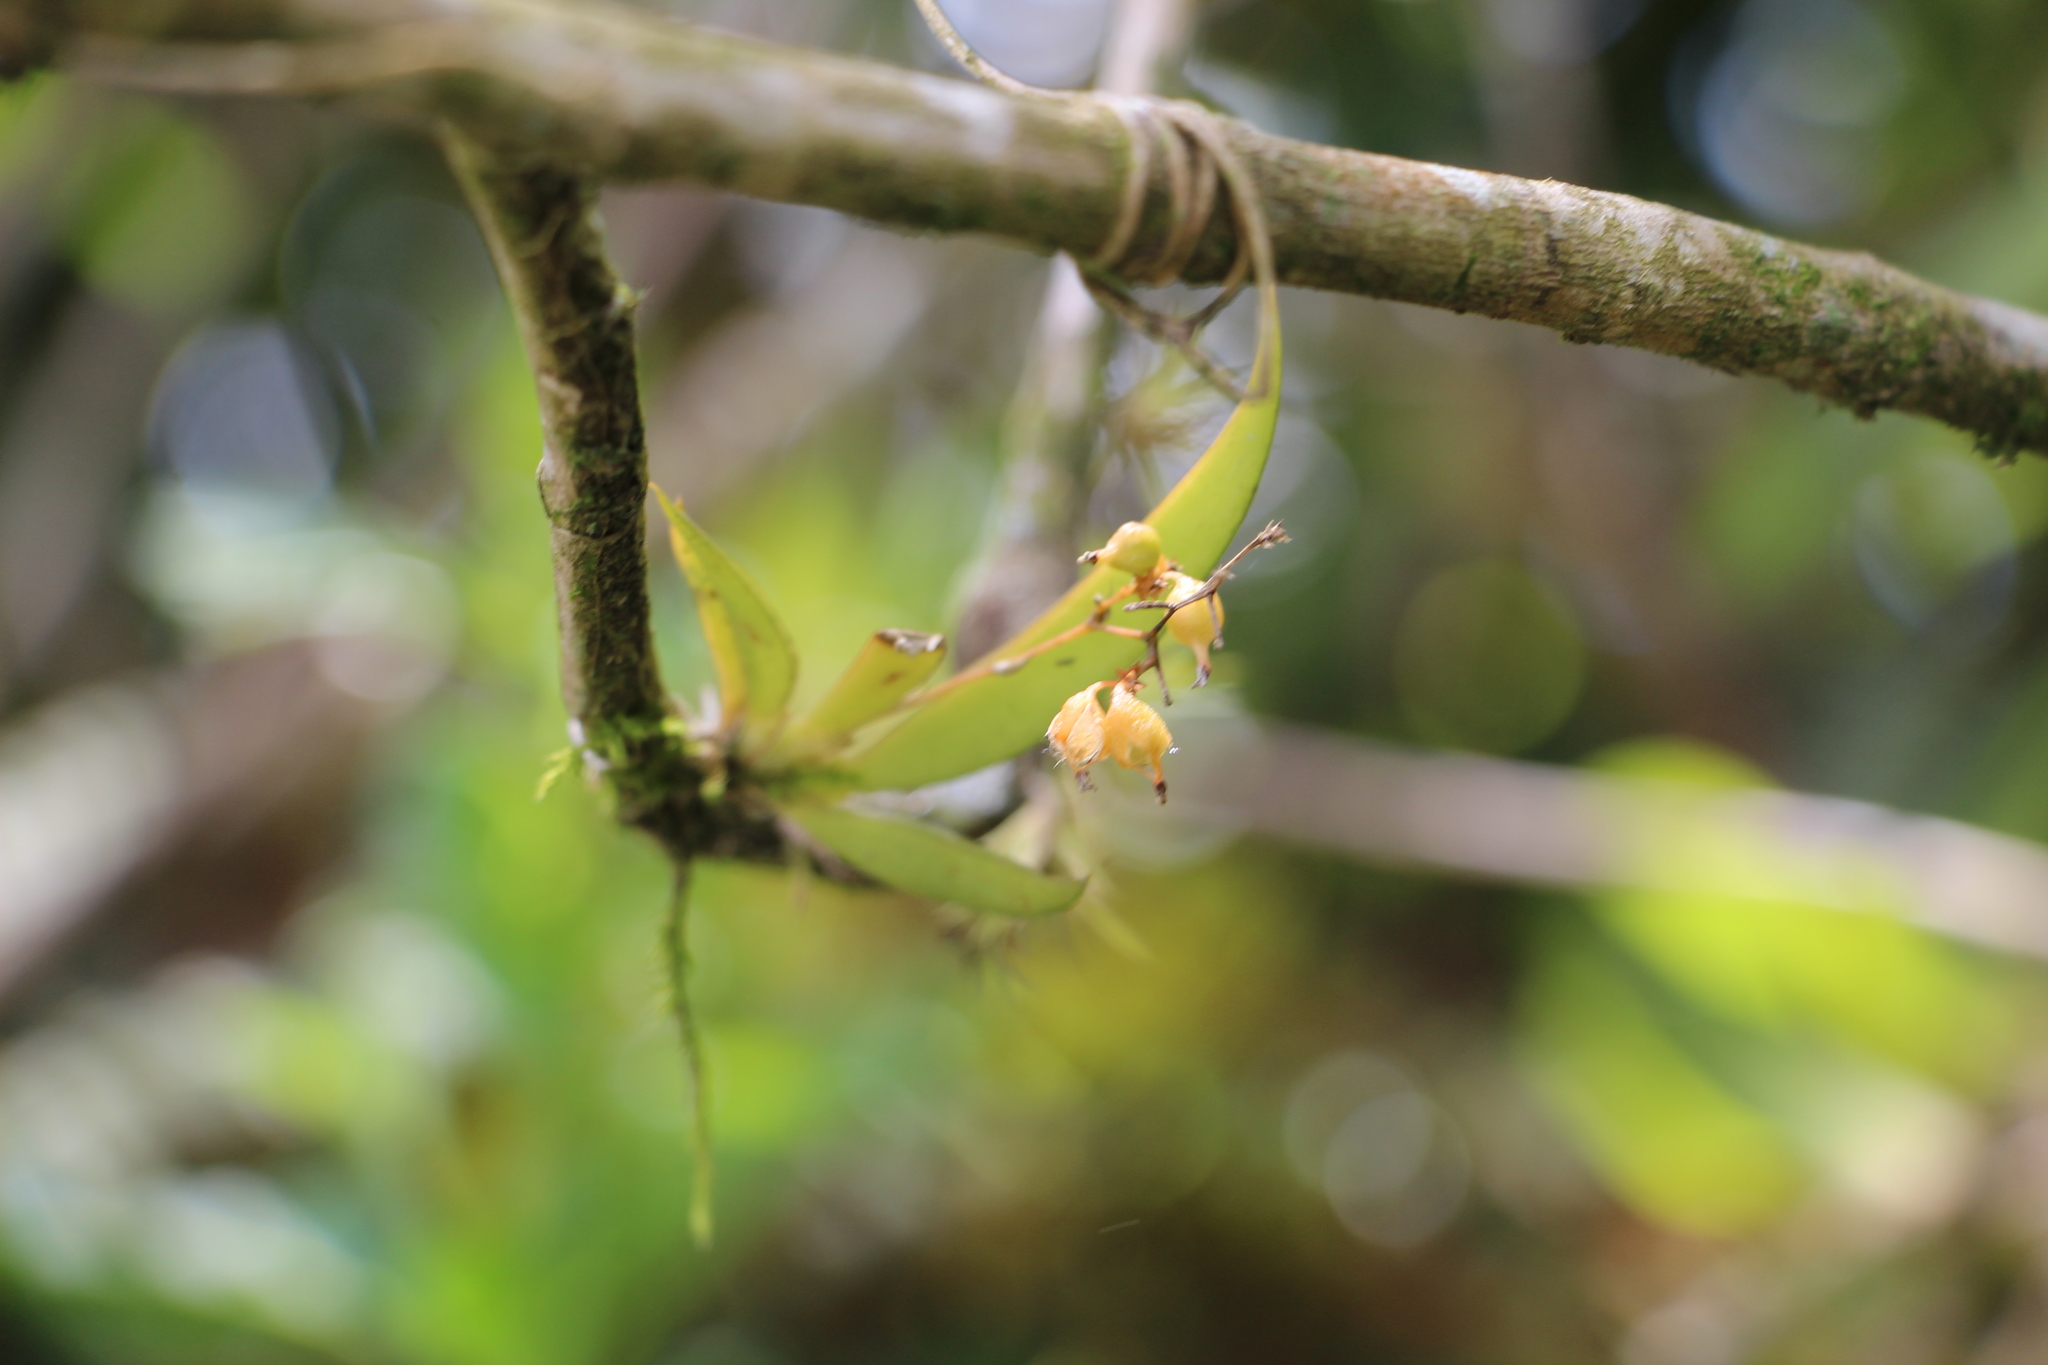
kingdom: Plantae
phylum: Tracheophyta
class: Liliopsida
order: Asparagales
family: Orchidaceae
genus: Trizeuxis
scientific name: Trizeuxis falcata
